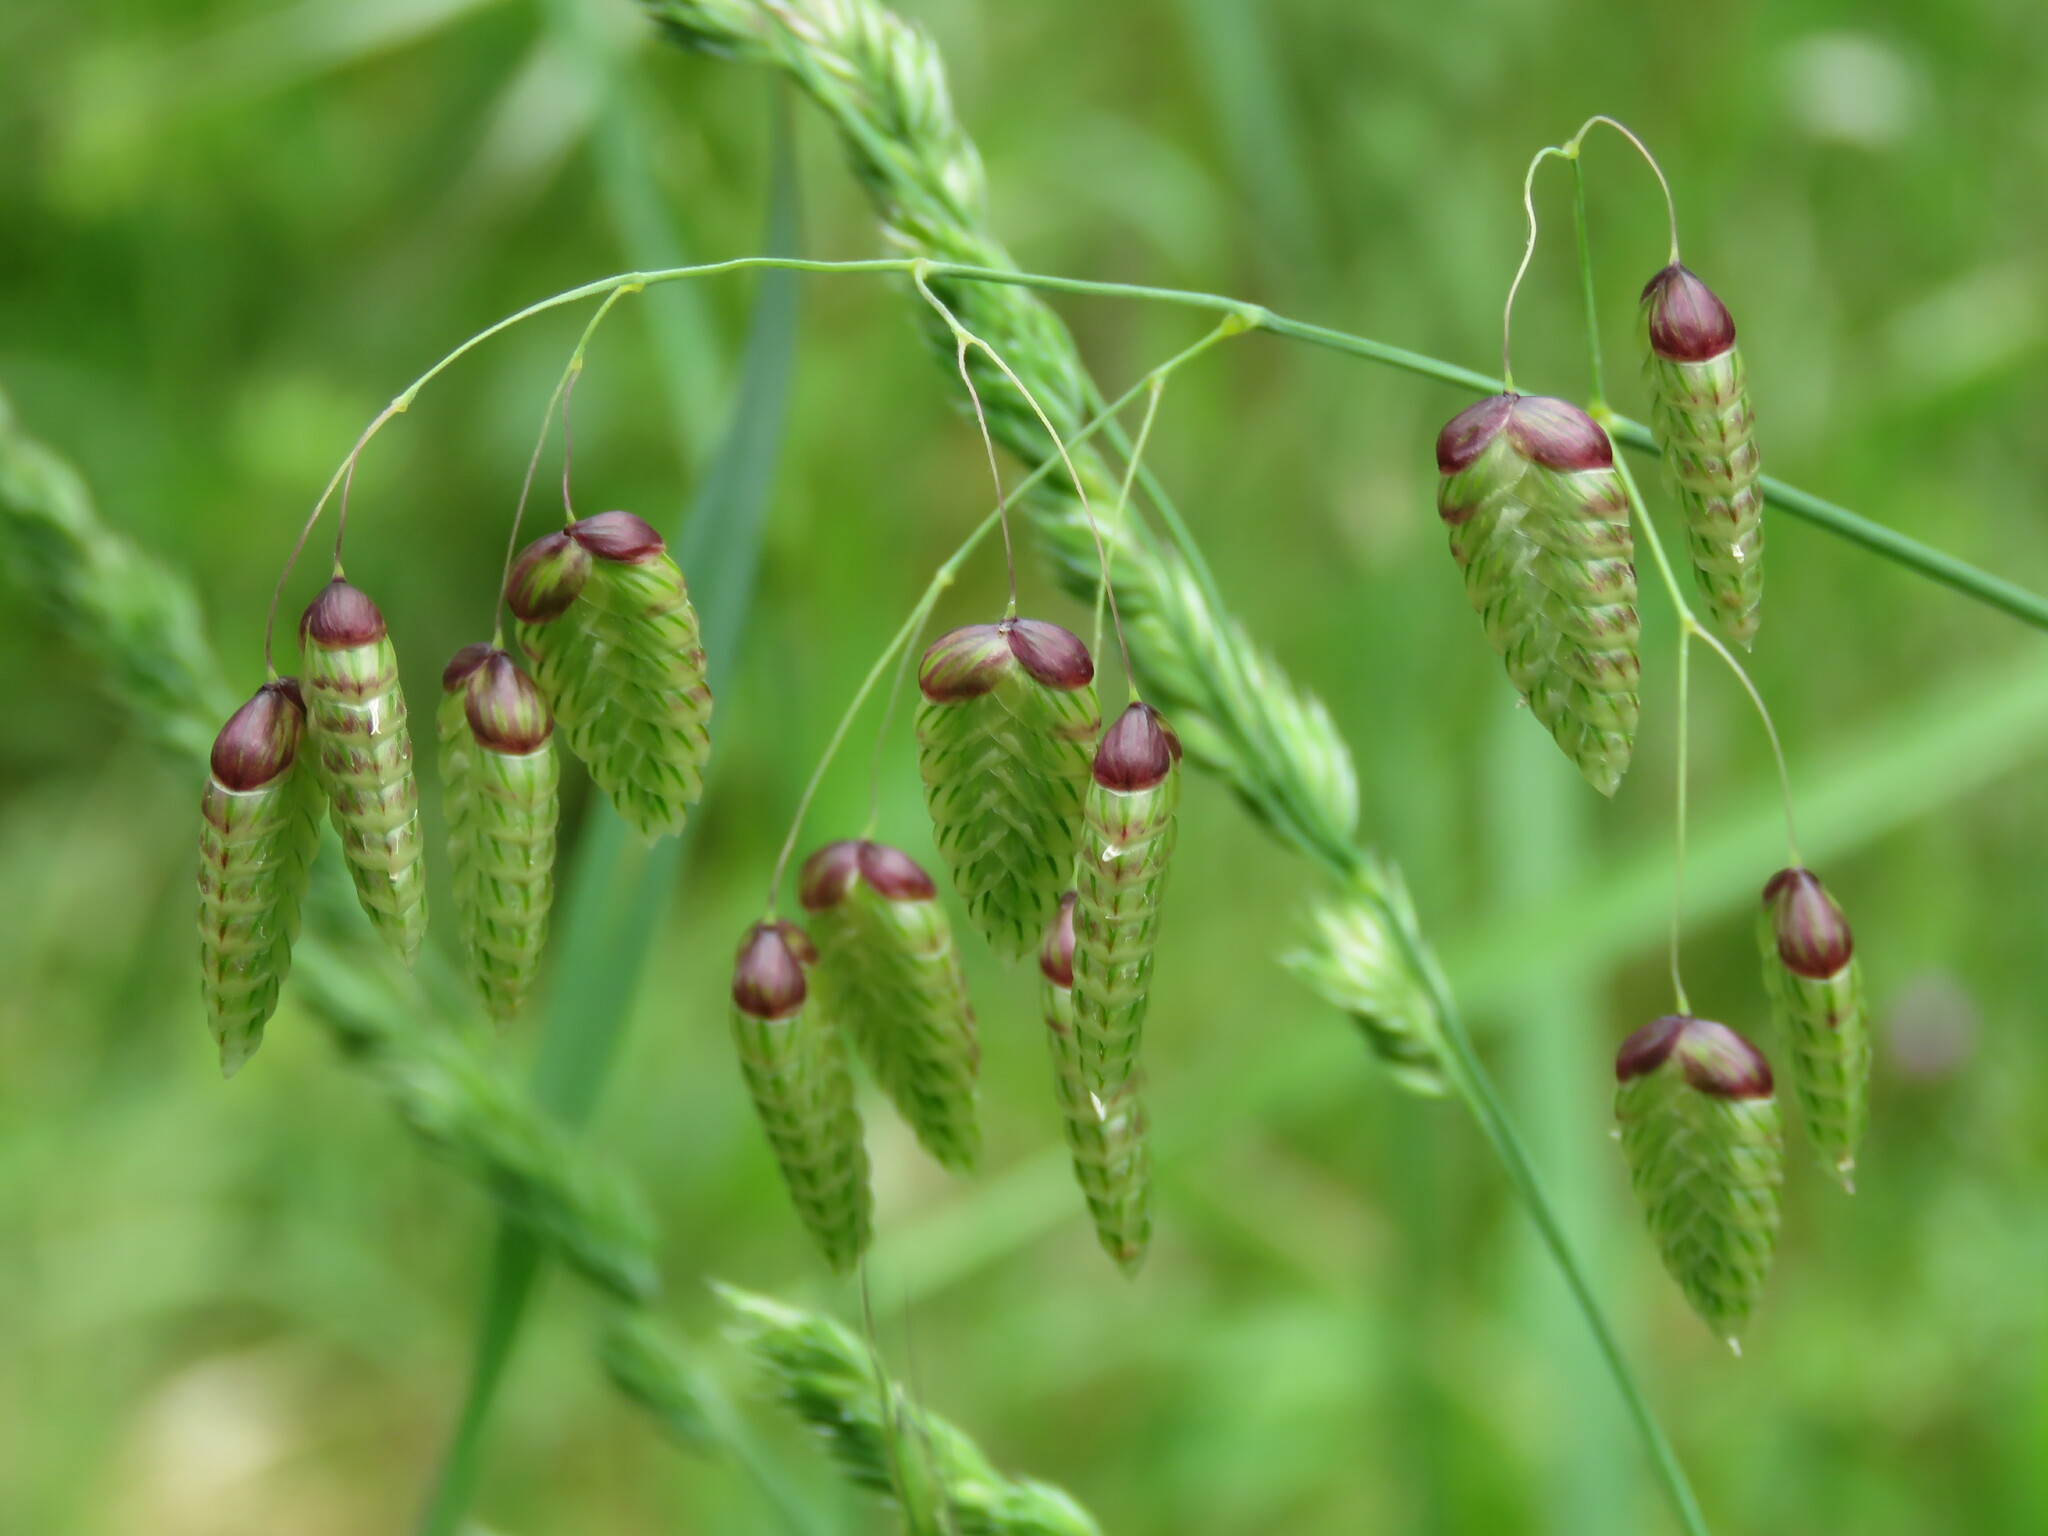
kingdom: Plantae
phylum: Tracheophyta
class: Liliopsida
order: Poales
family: Poaceae
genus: Briza
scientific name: Briza maxima
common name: Big quakinggrass
